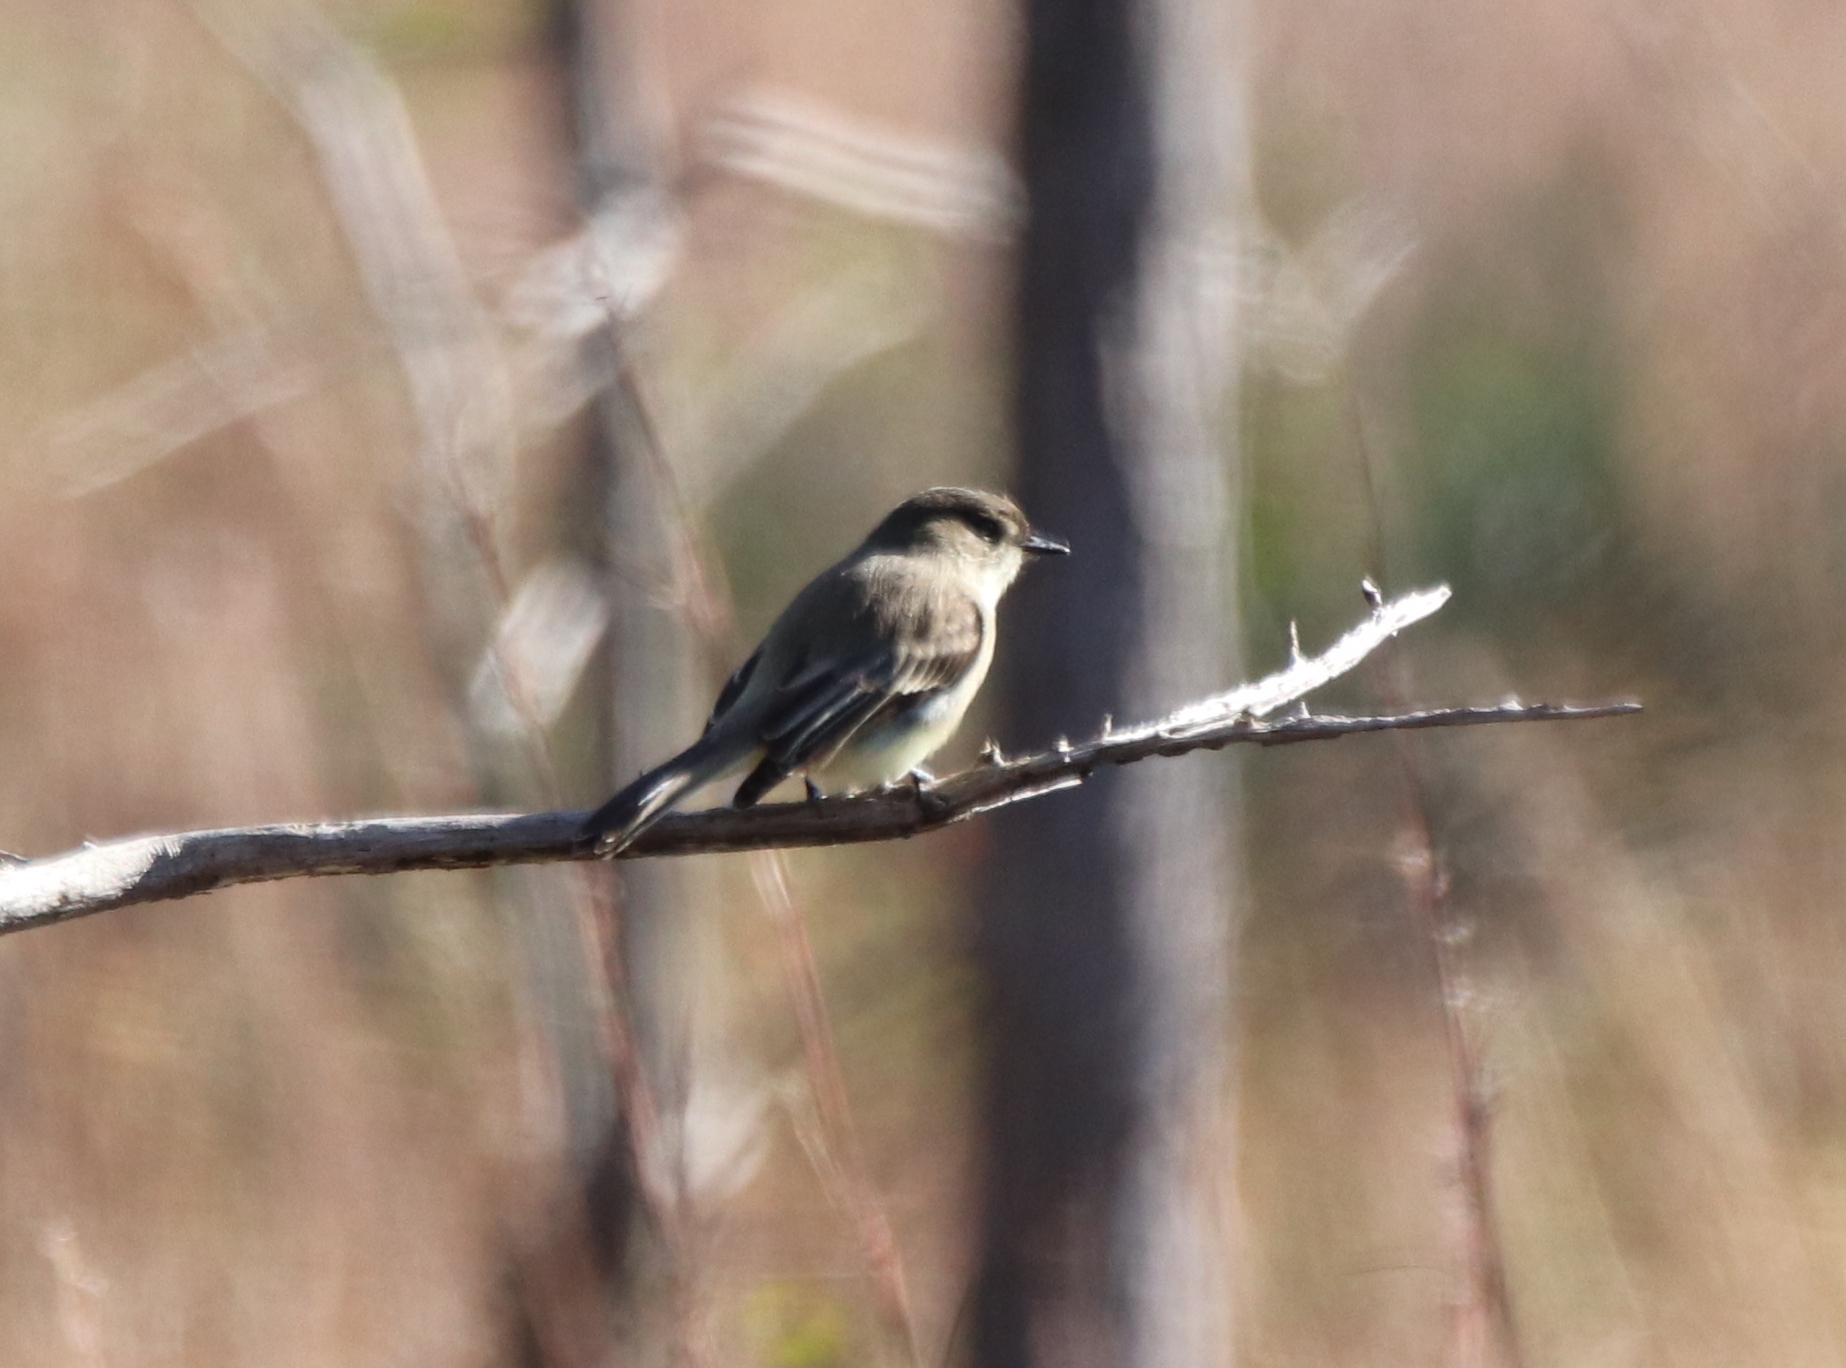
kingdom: Animalia
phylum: Chordata
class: Aves
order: Passeriformes
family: Tyrannidae
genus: Sayornis
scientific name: Sayornis phoebe
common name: Eastern phoebe
